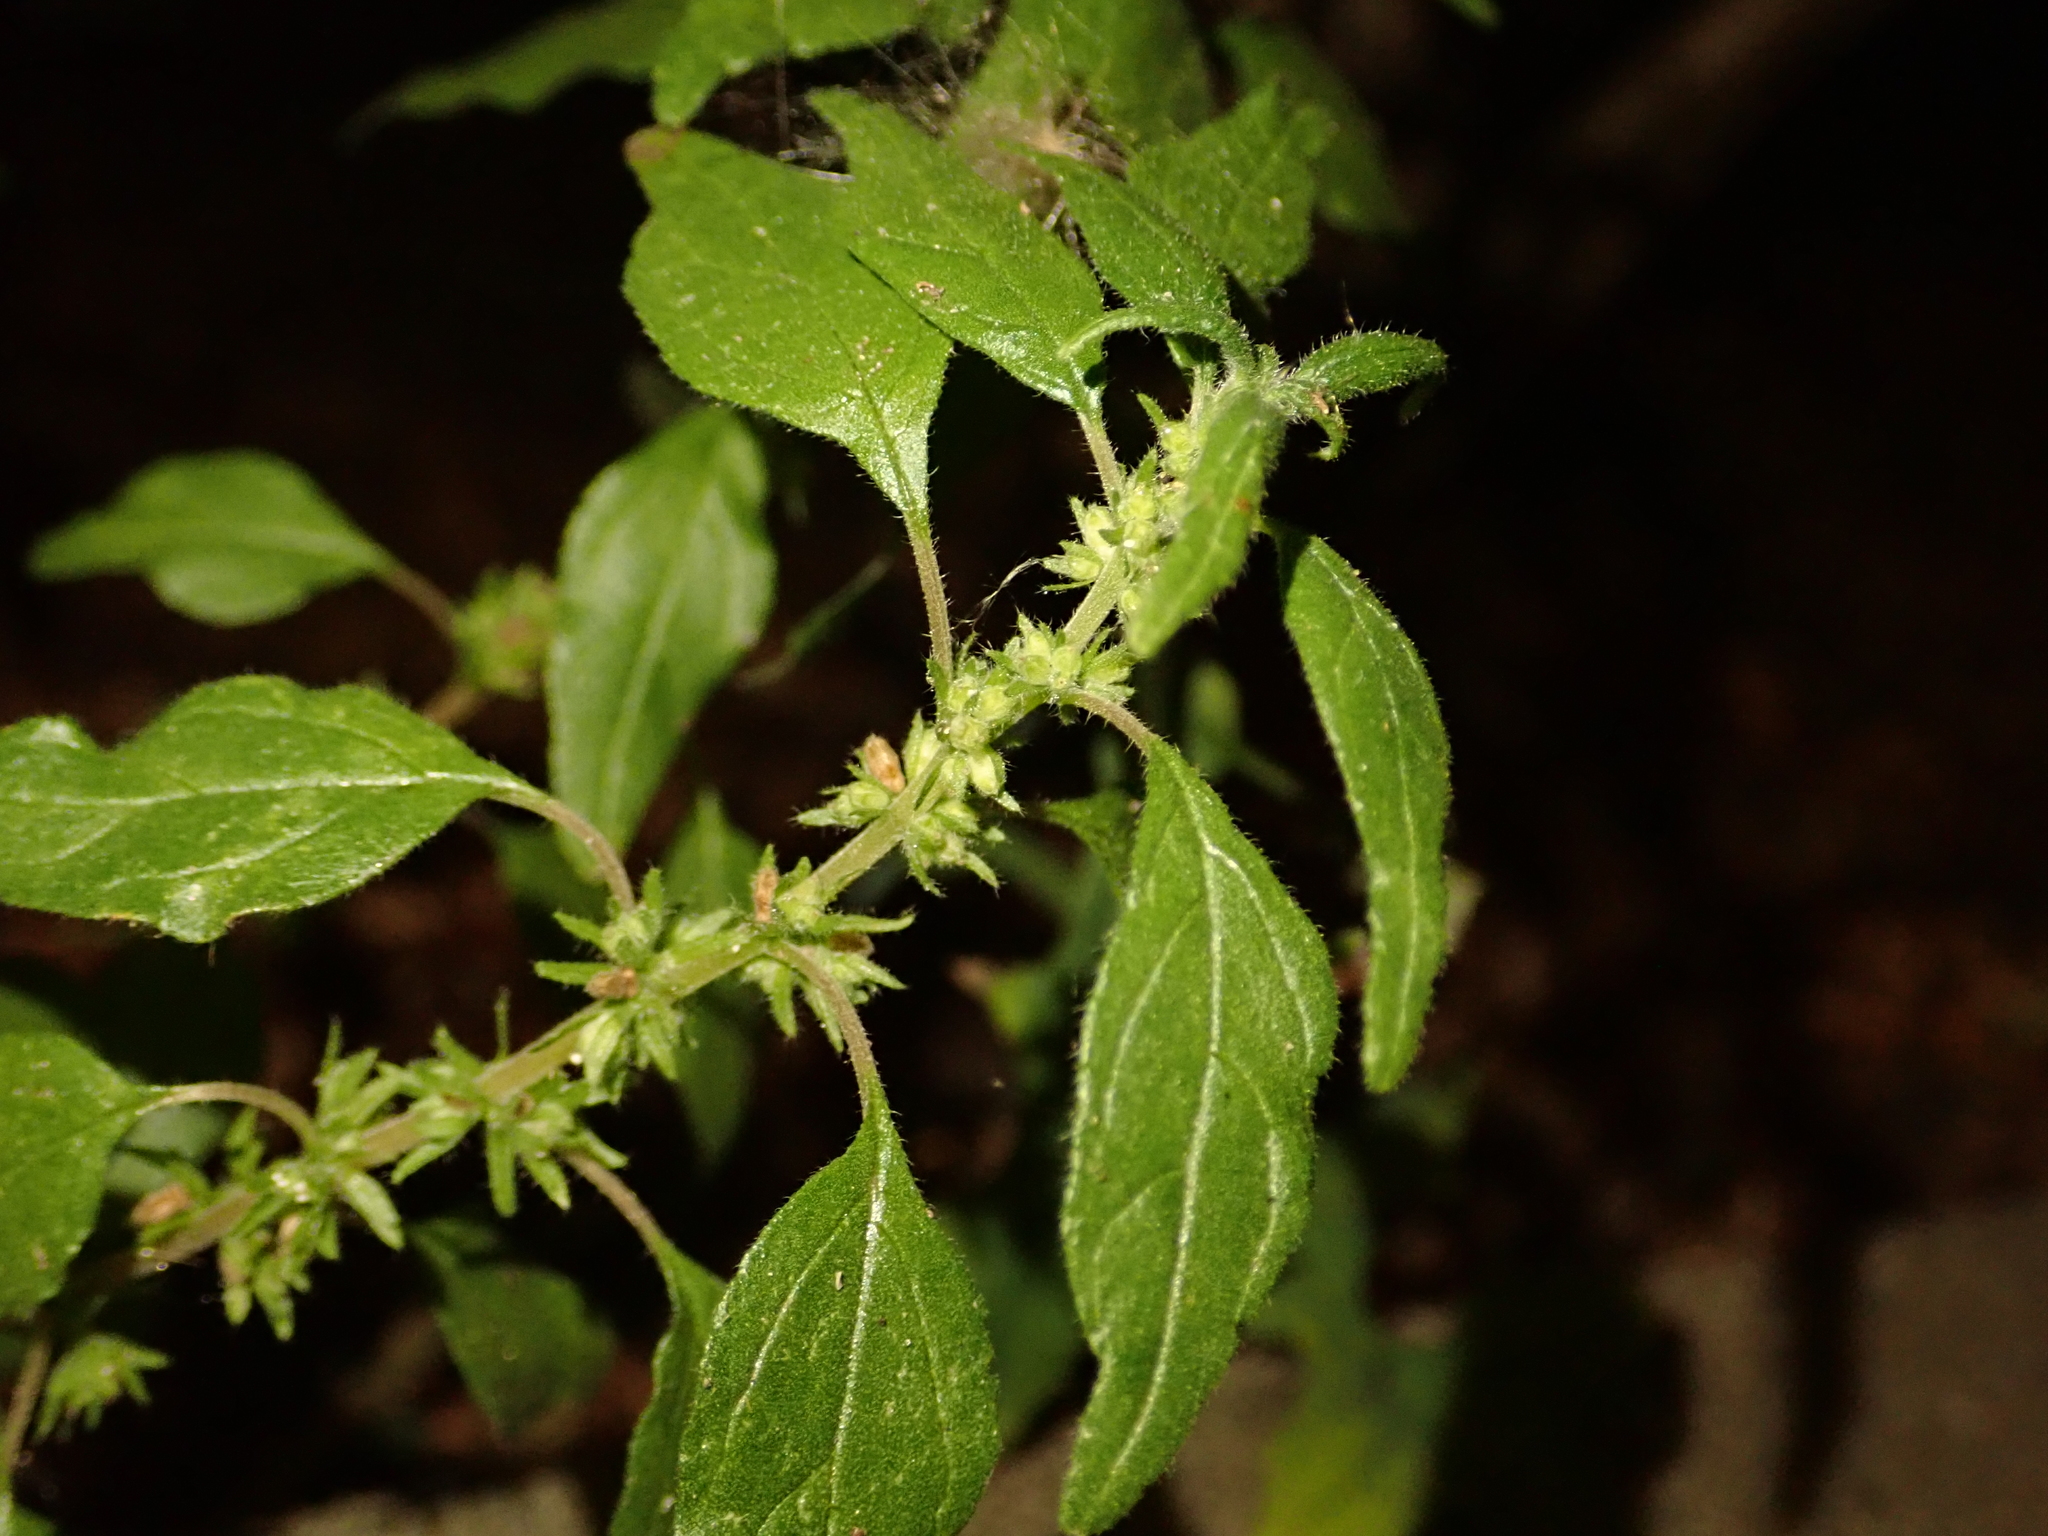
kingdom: Plantae
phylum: Tracheophyta
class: Magnoliopsida
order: Rosales
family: Urticaceae
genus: Parietaria
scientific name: Parietaria pensylvanica
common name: Pennsylvania pellitory
